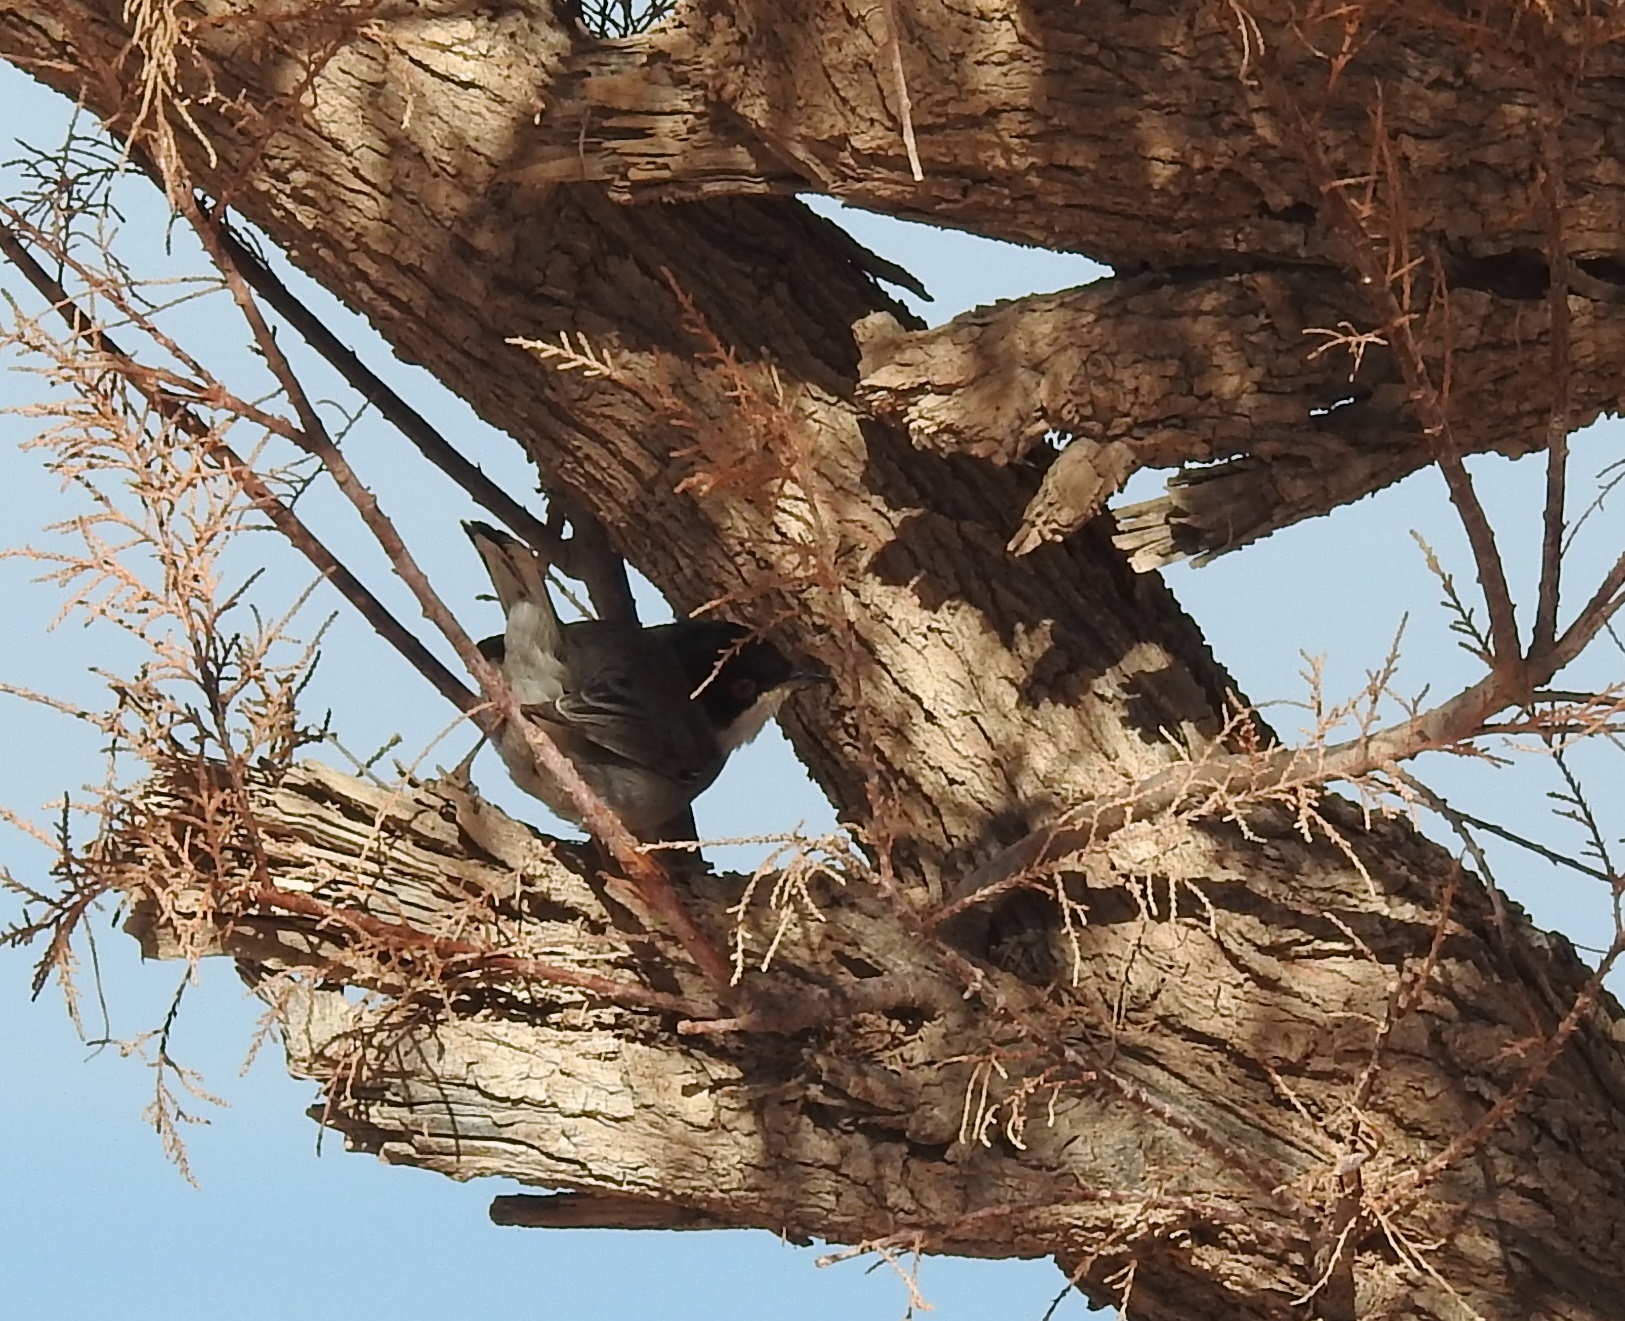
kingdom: Animalia
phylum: Chordata
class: Aves
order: Passeriformes
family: Sylviidae
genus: Curruca
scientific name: Curruca melanocephala
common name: Sardinian warbler
